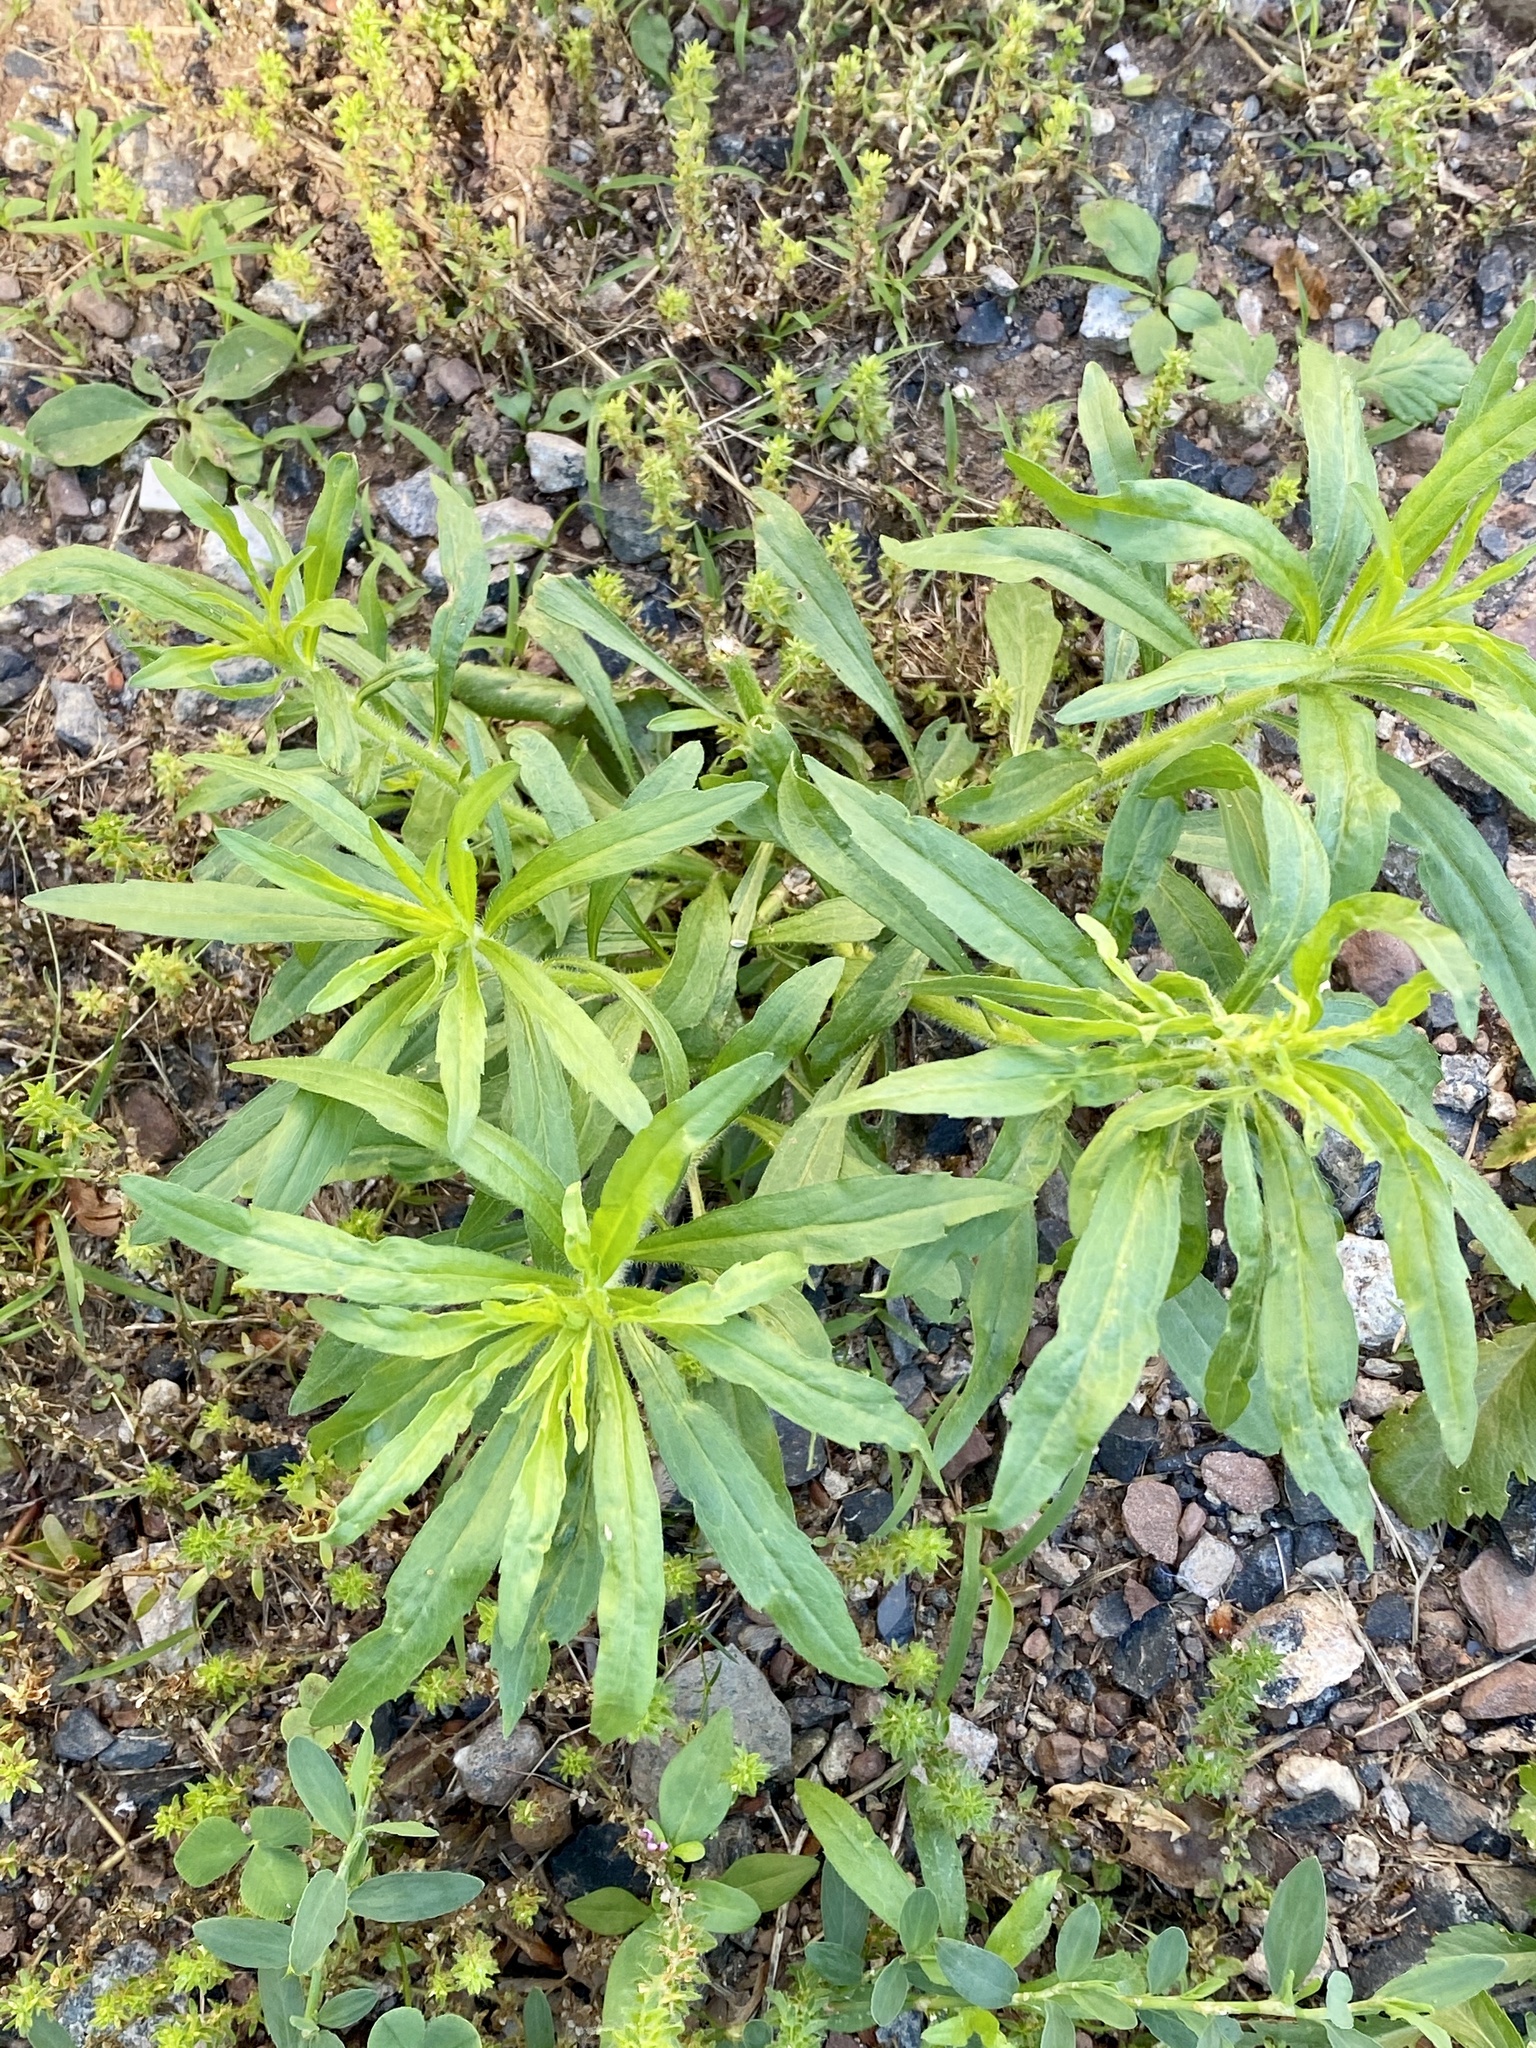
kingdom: Plantae
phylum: Tracheophyta
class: Magnoliopsida
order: Asterales
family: Asteraceae
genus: Erigeron
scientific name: Erigeron canadensis
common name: Canadian fleabane
